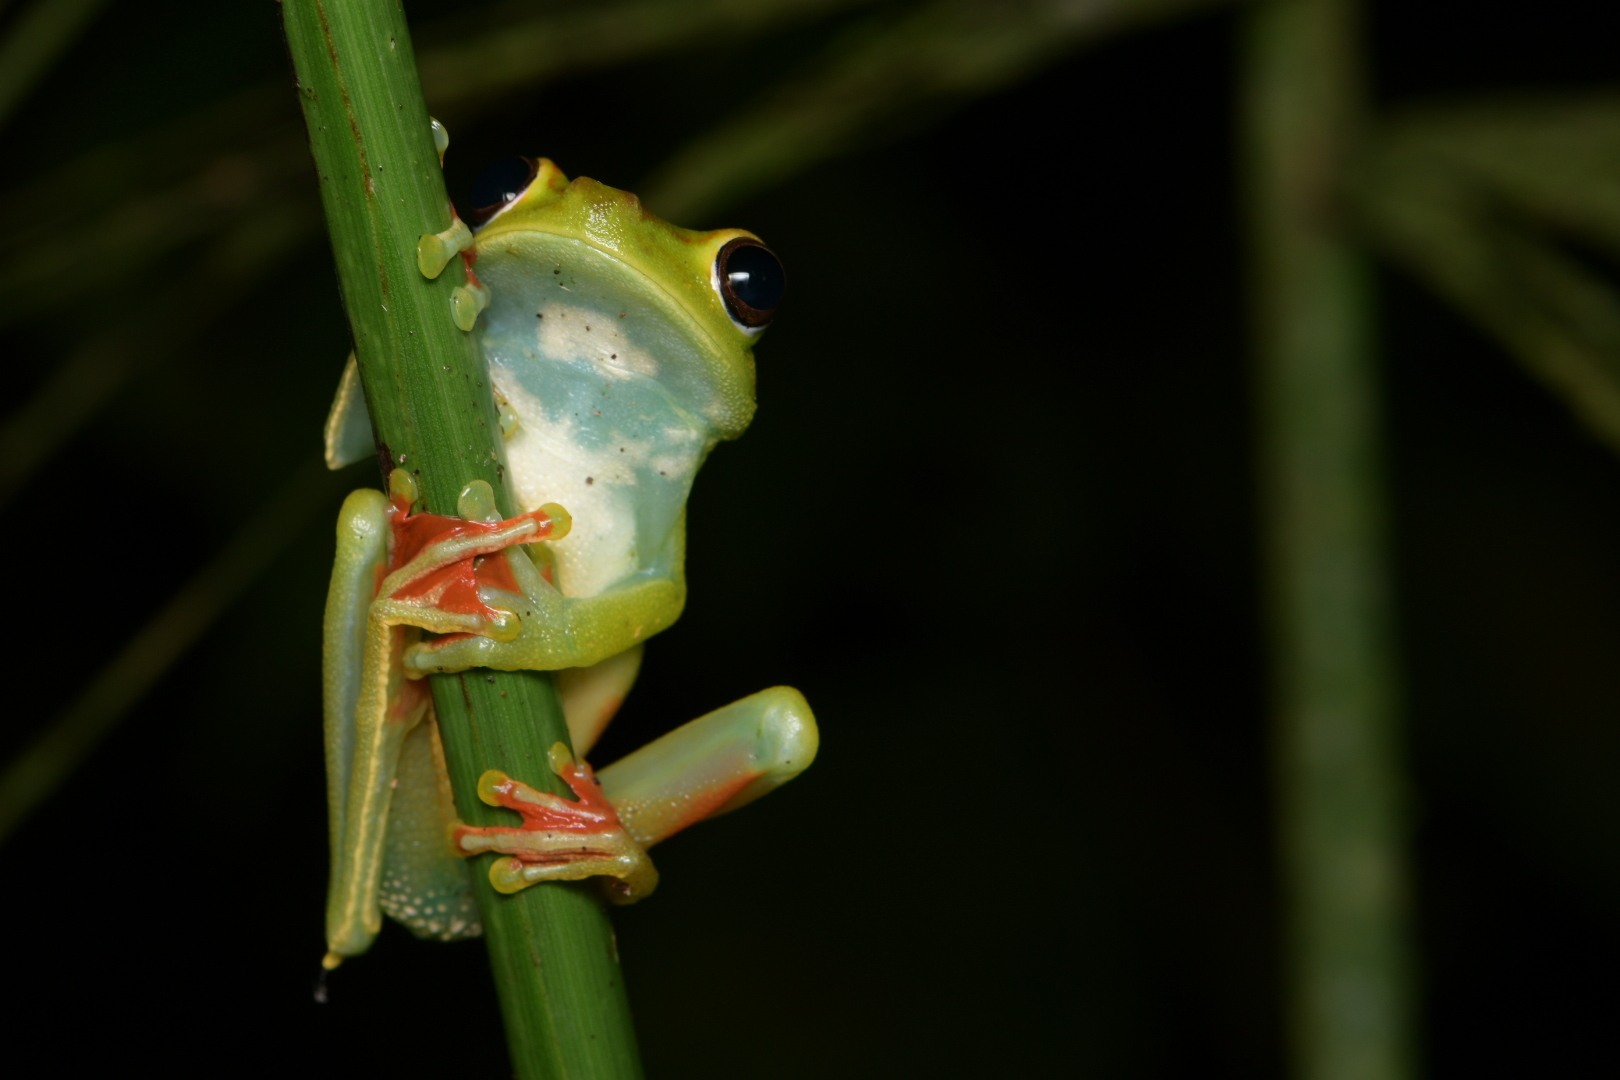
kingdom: Animalia
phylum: Chordata
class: Amphibia
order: Anura
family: Hylidae
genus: Boana
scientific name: Boana rufitela
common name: Canal zone treefrog
